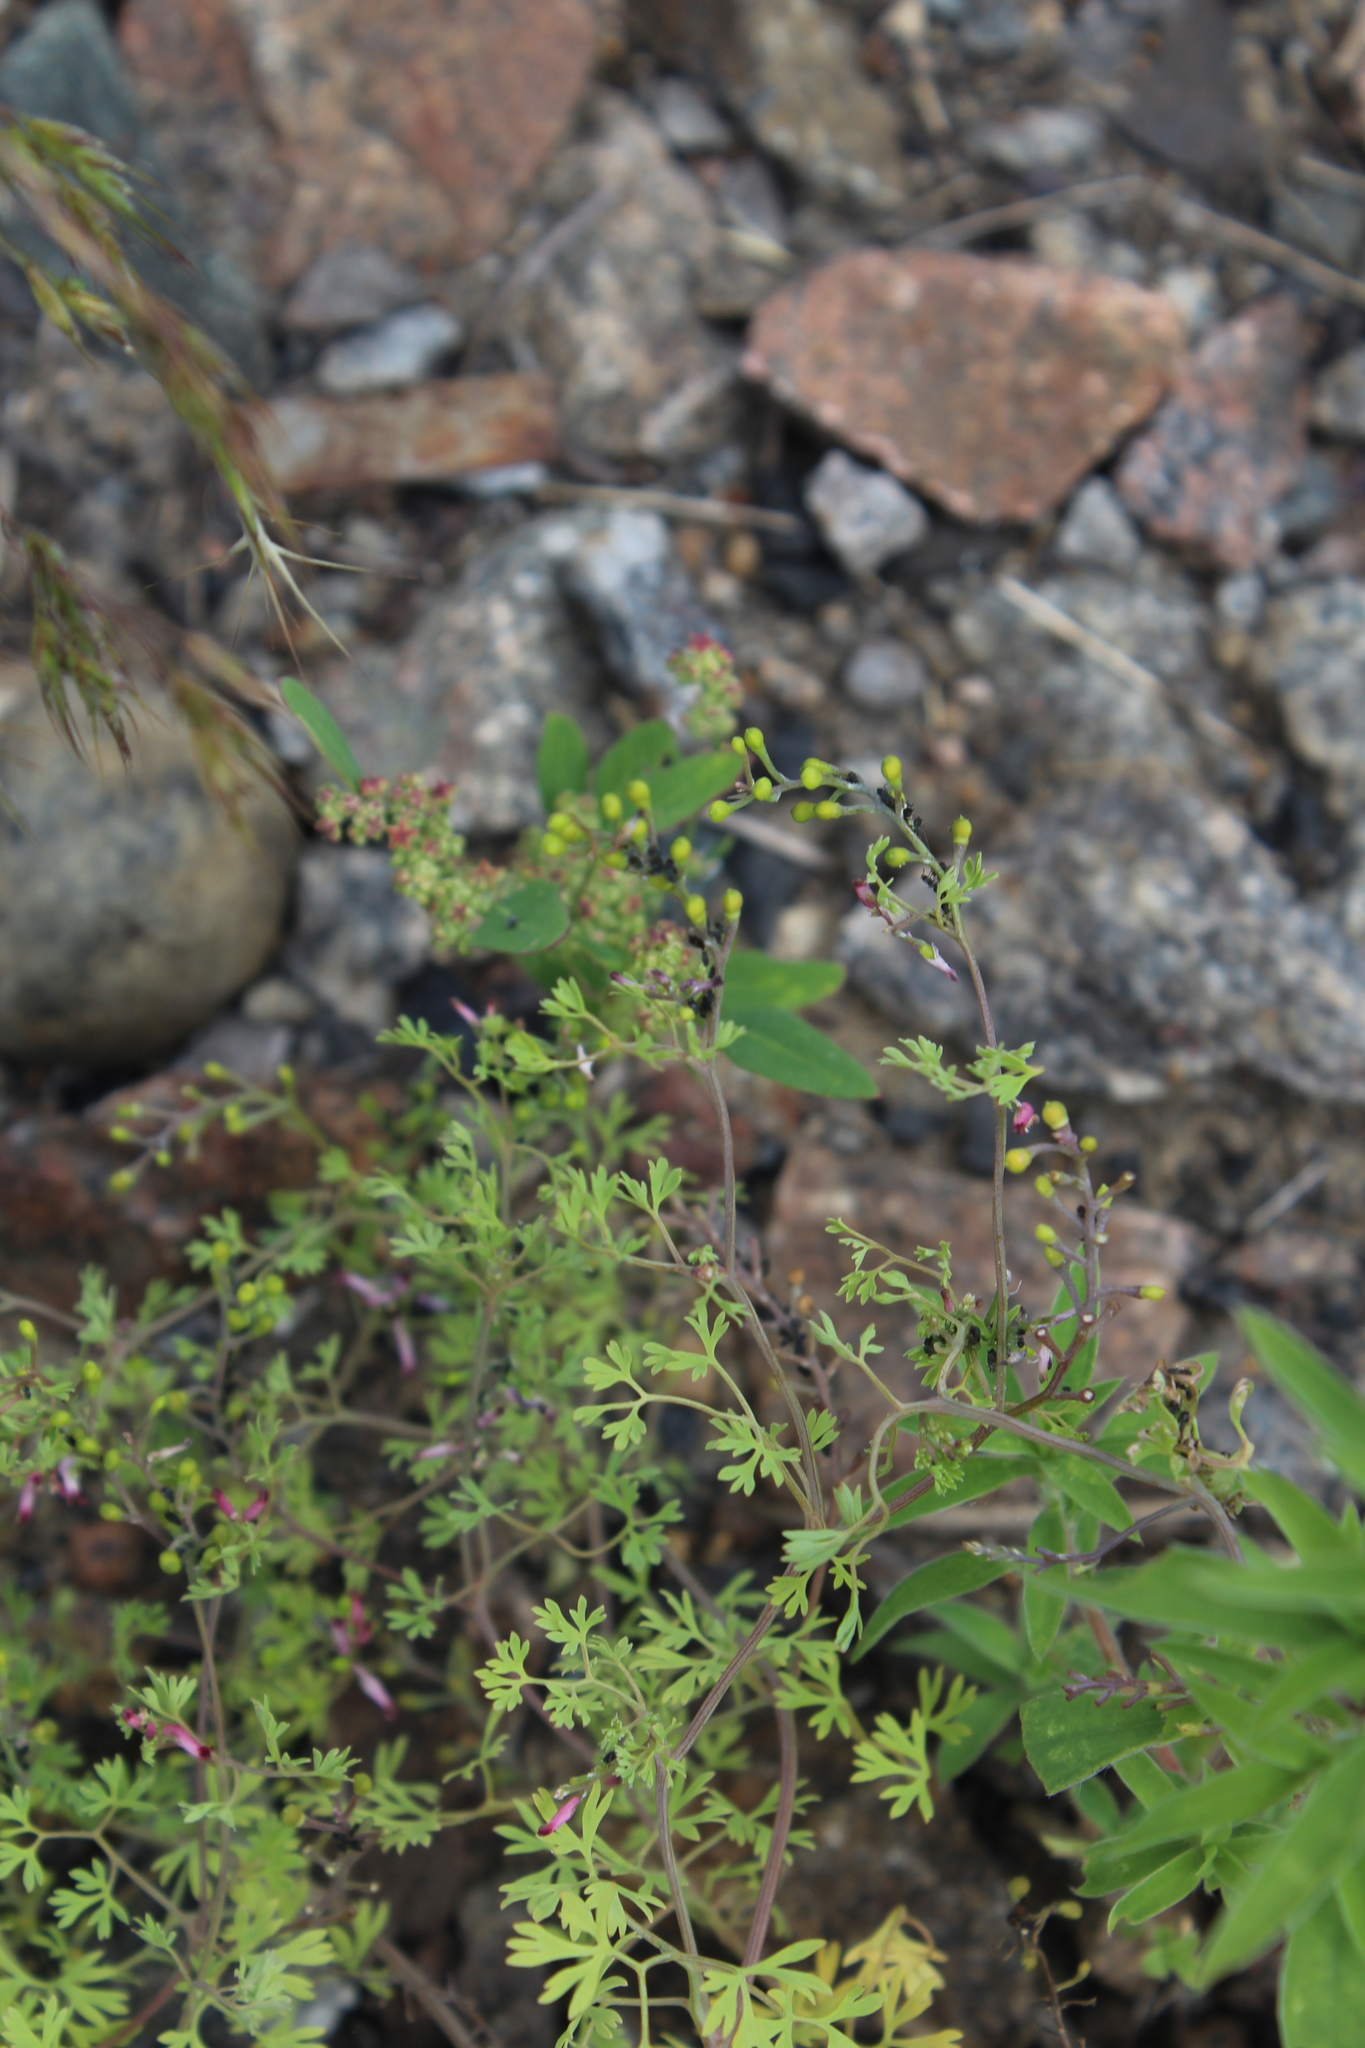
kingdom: Plantae
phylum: Tracheophyta
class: Magnoliopsida
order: Ranunculales
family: Papaveraceae
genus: Fumaria
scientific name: Fumaria schleicheri
